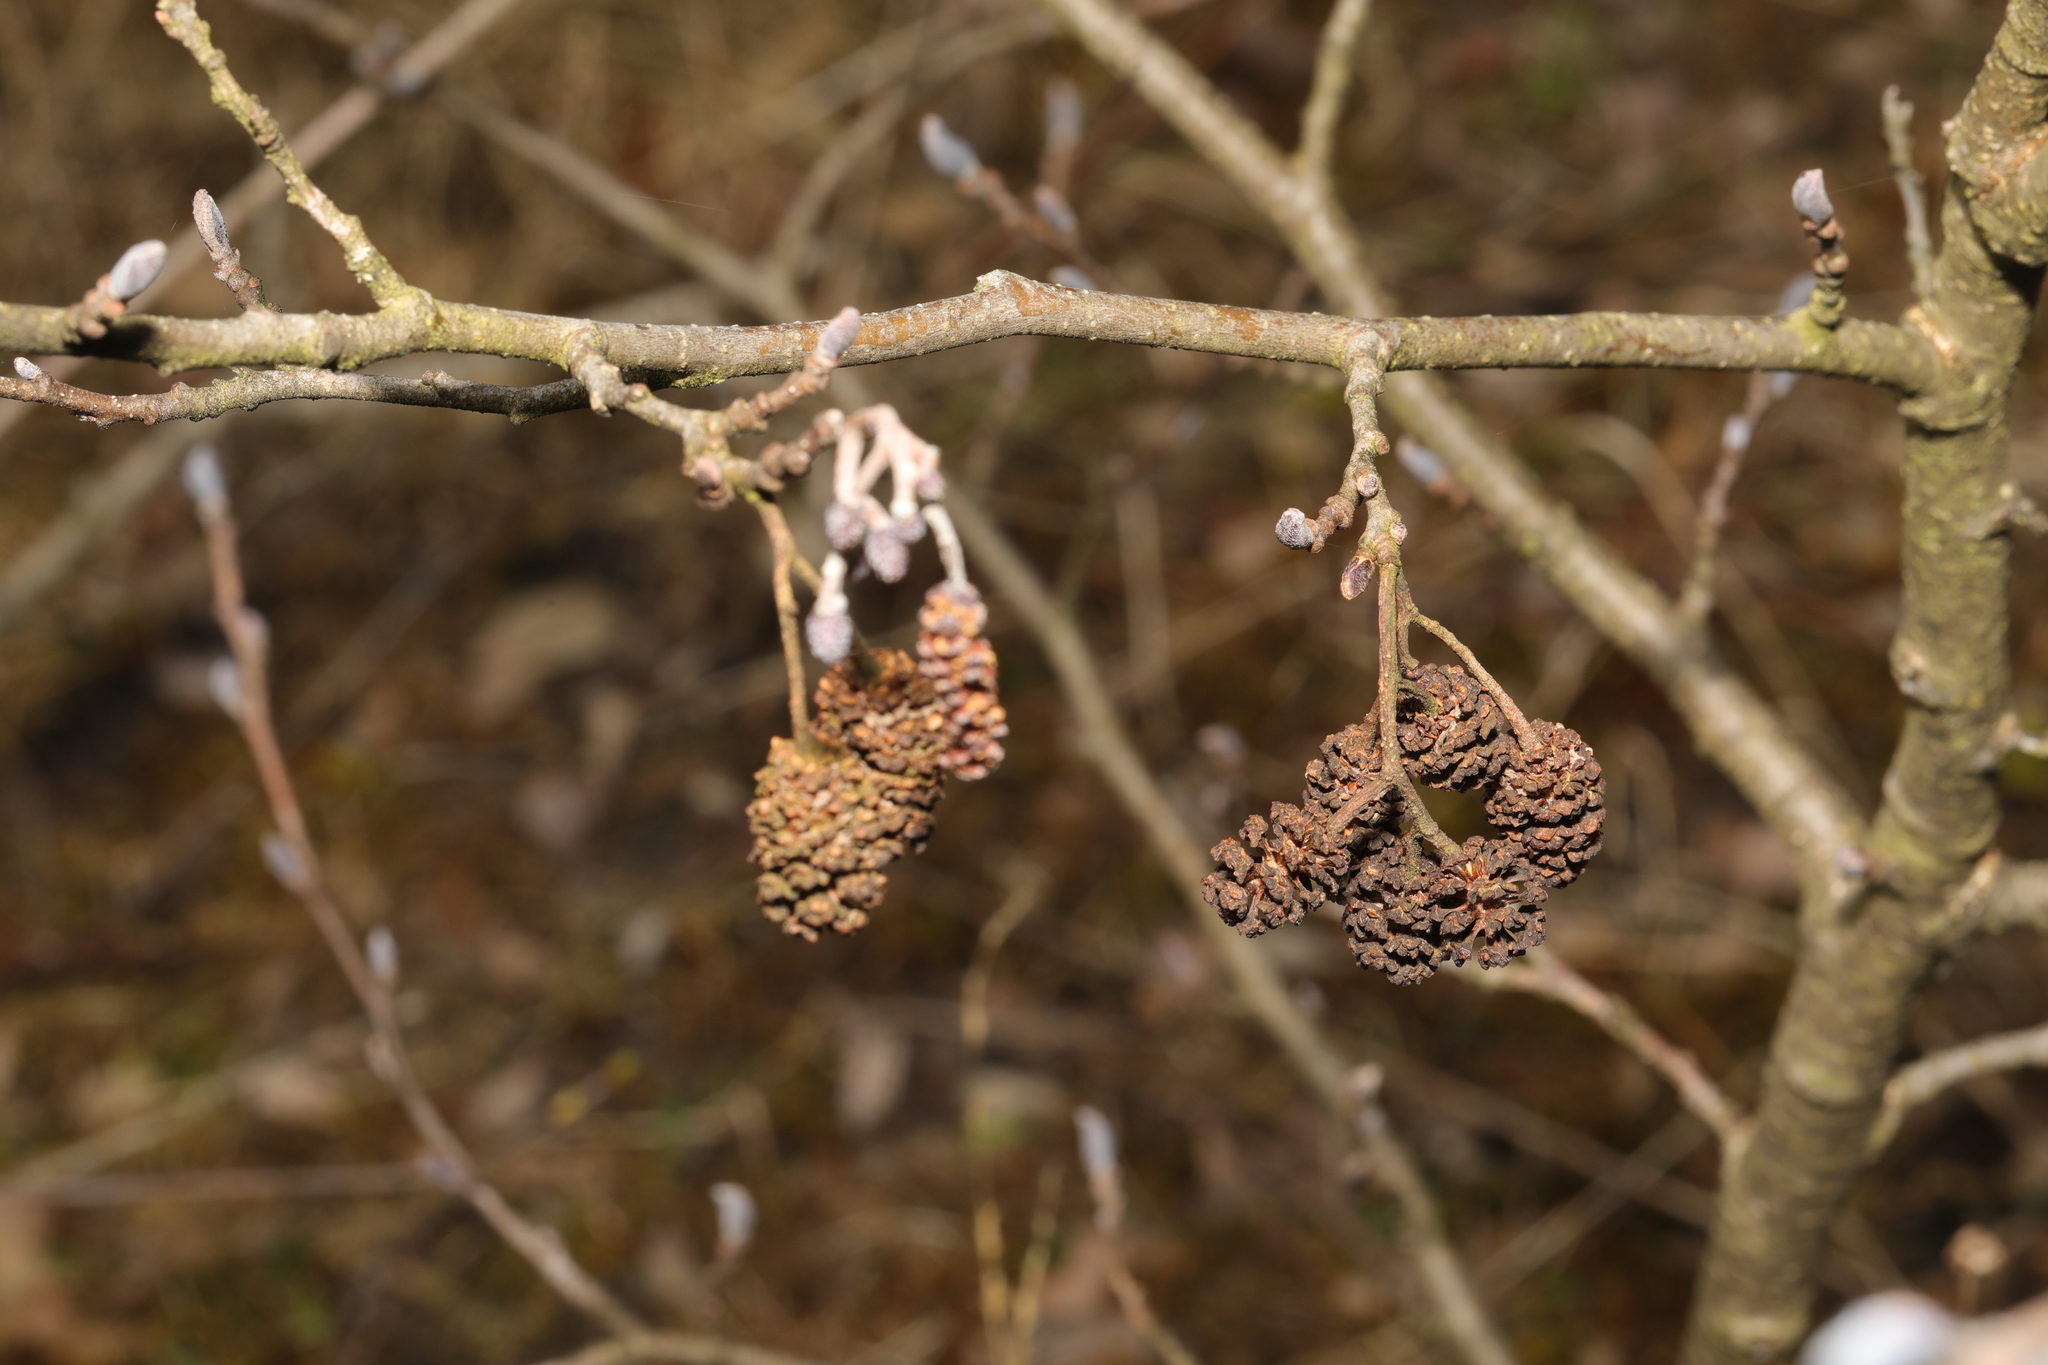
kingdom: Plantae
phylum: Tracheophyta
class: Magnoliopsida
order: Fagales
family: Betulaceae
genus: Alnus
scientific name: Alnus glutinosa
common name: Black alder
